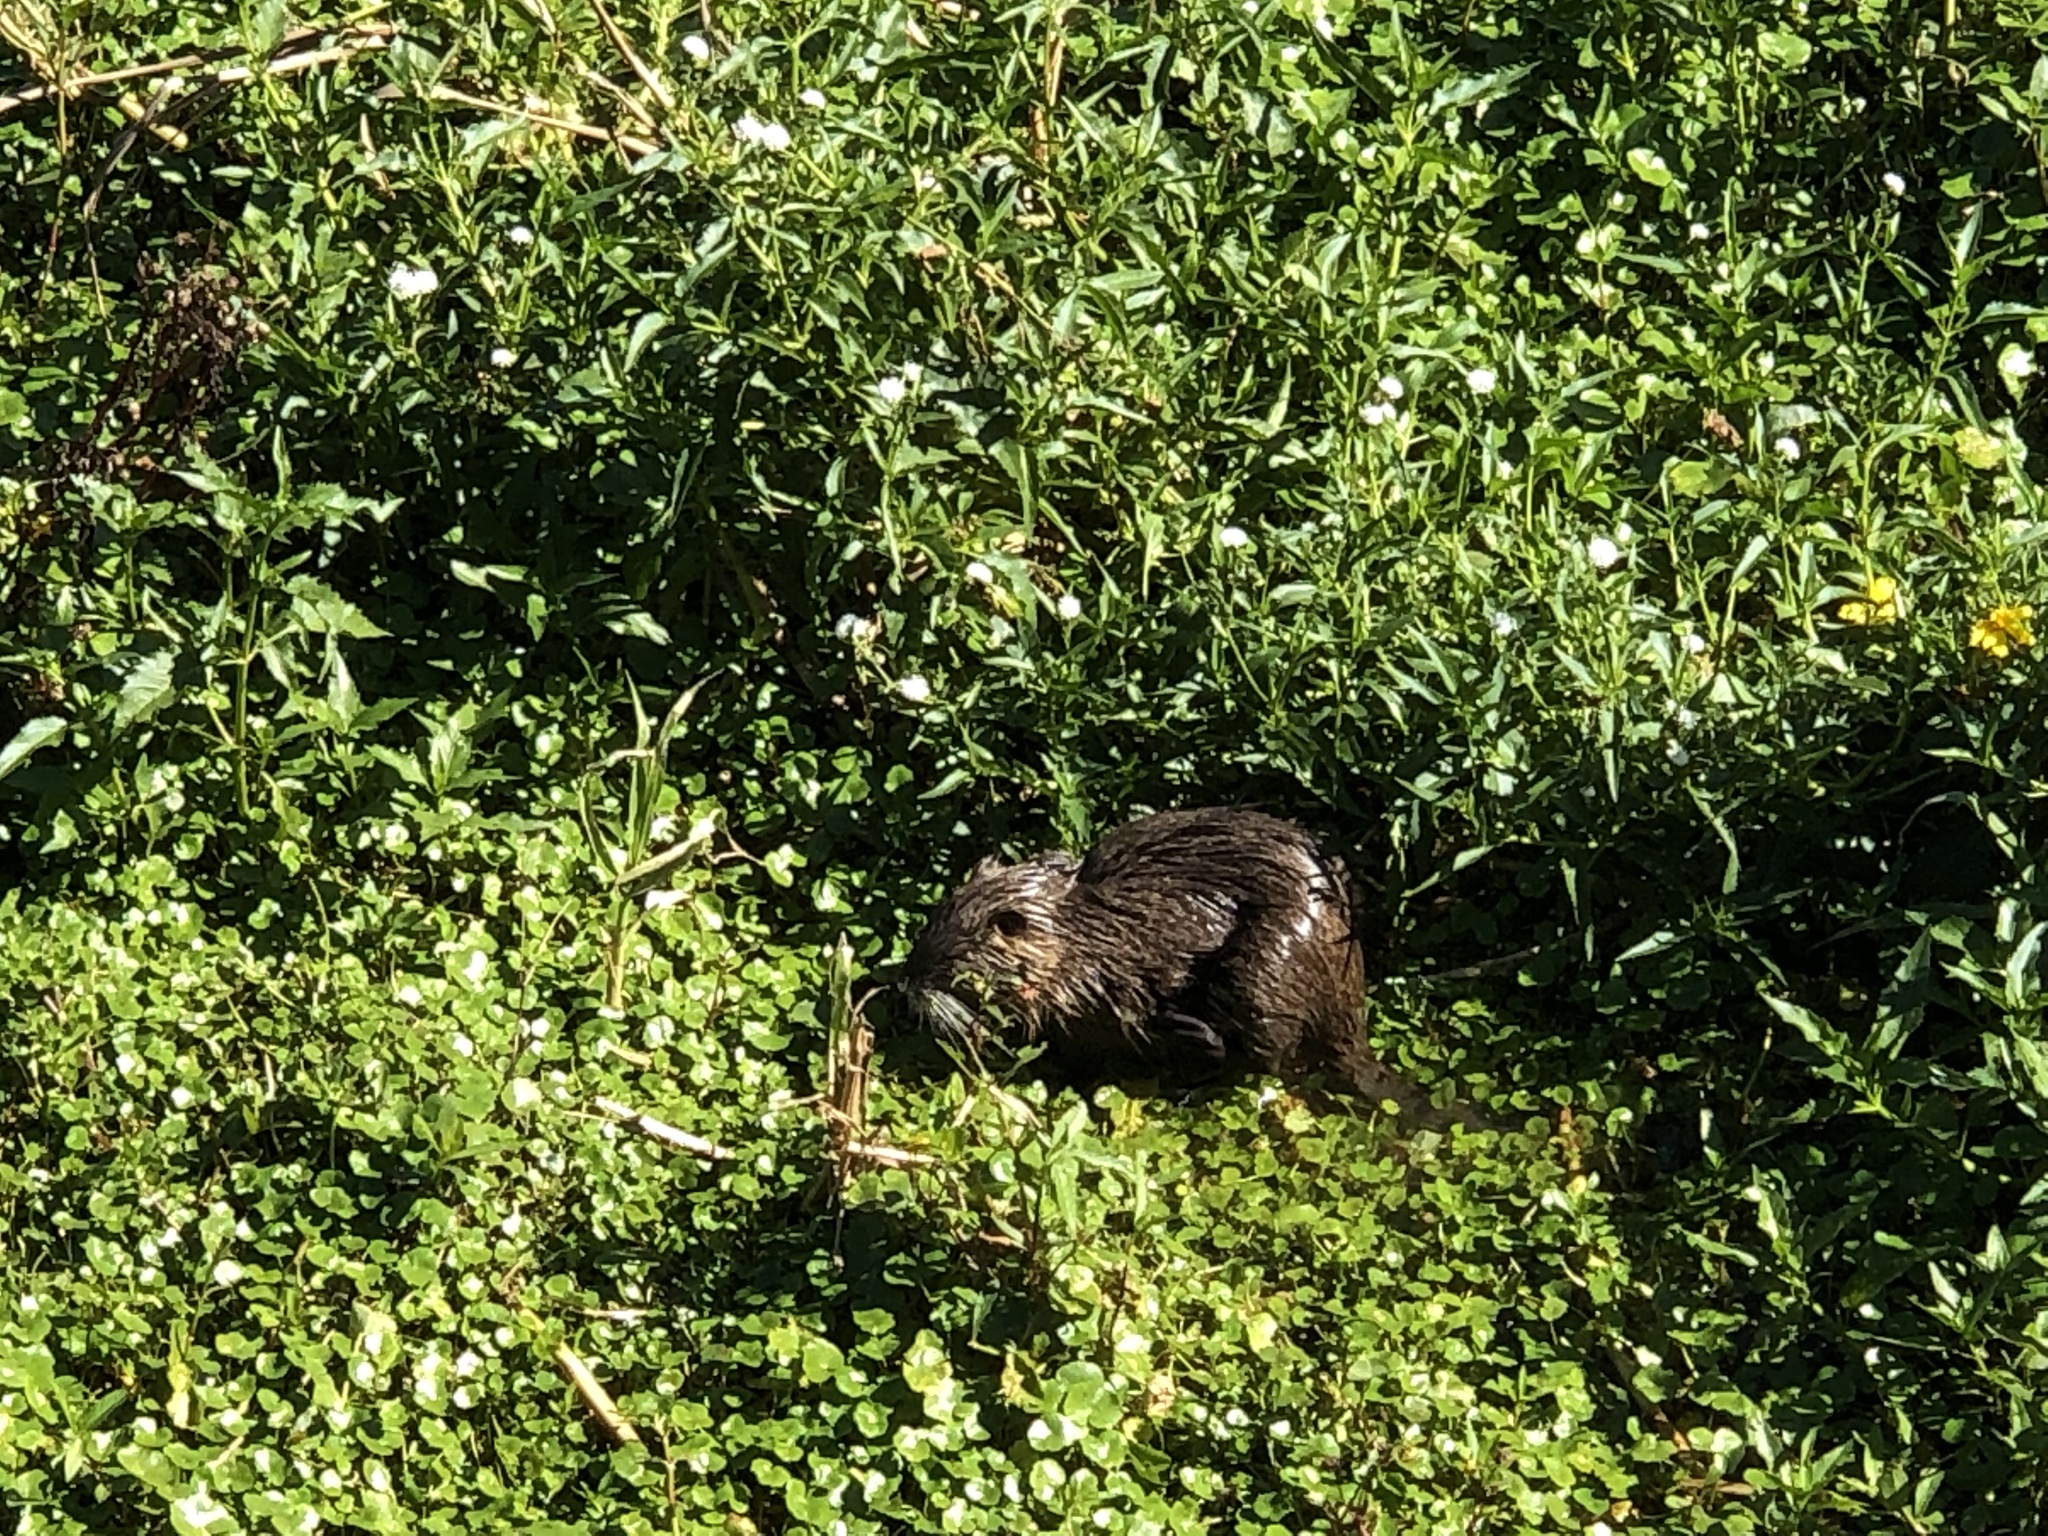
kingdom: Animalia
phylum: Chordata
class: Mammalia
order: Rodentia
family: Myocastoridae
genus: Myocastor
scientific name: Myocastor coypus
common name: Coypu
